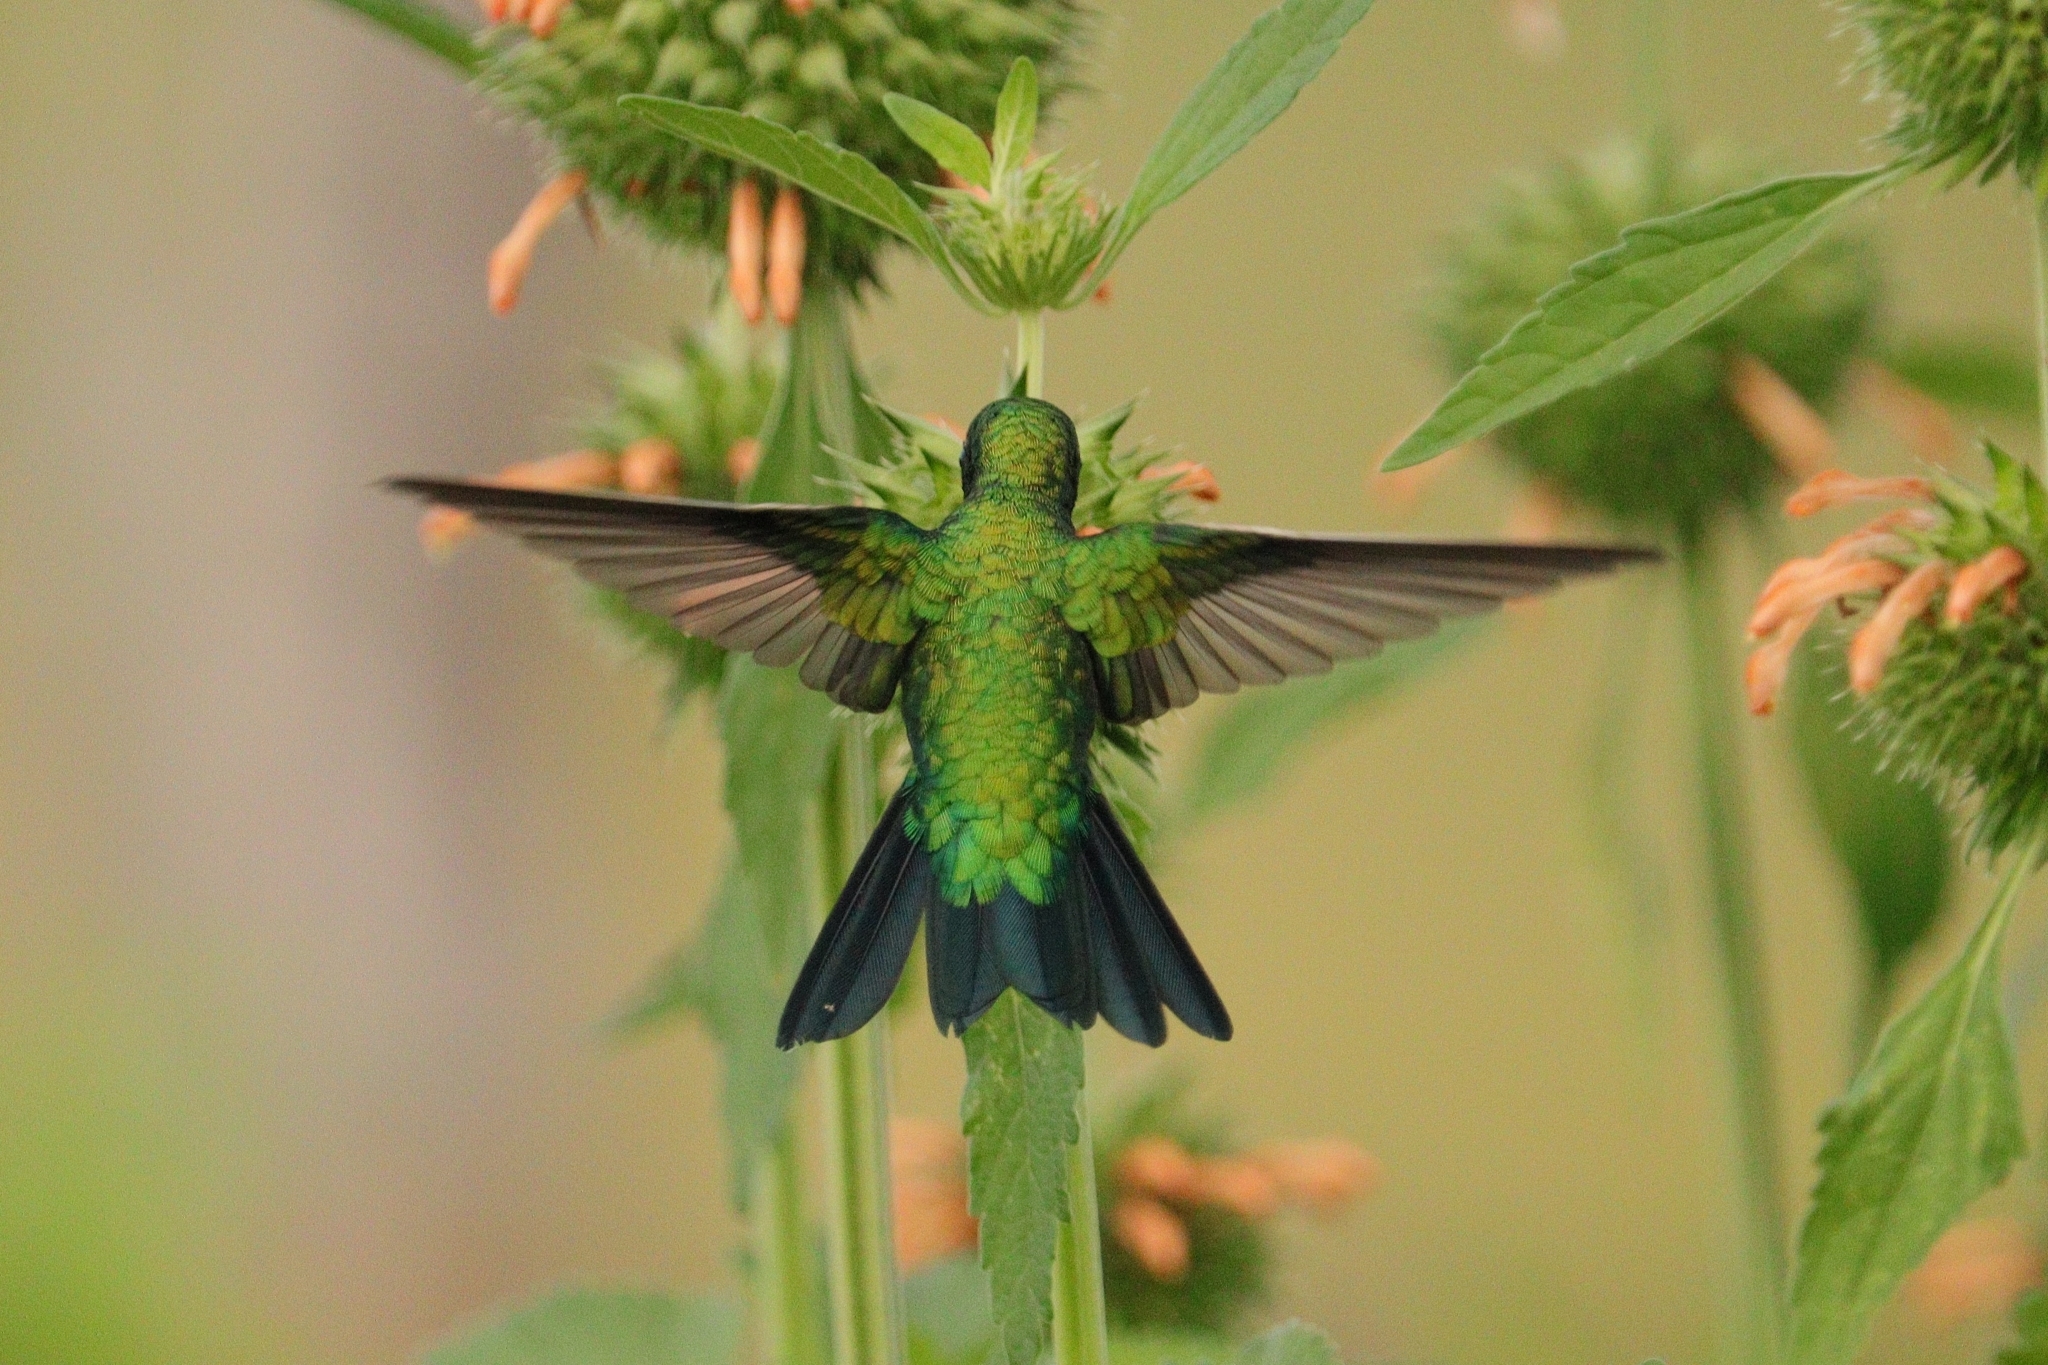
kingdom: Animalia
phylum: Chordata
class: Aves
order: Apodiformes
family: Trochilidae
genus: Chlorostilbon
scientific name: Chlorostilbon lucidus
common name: Glittering-bellied emerald
